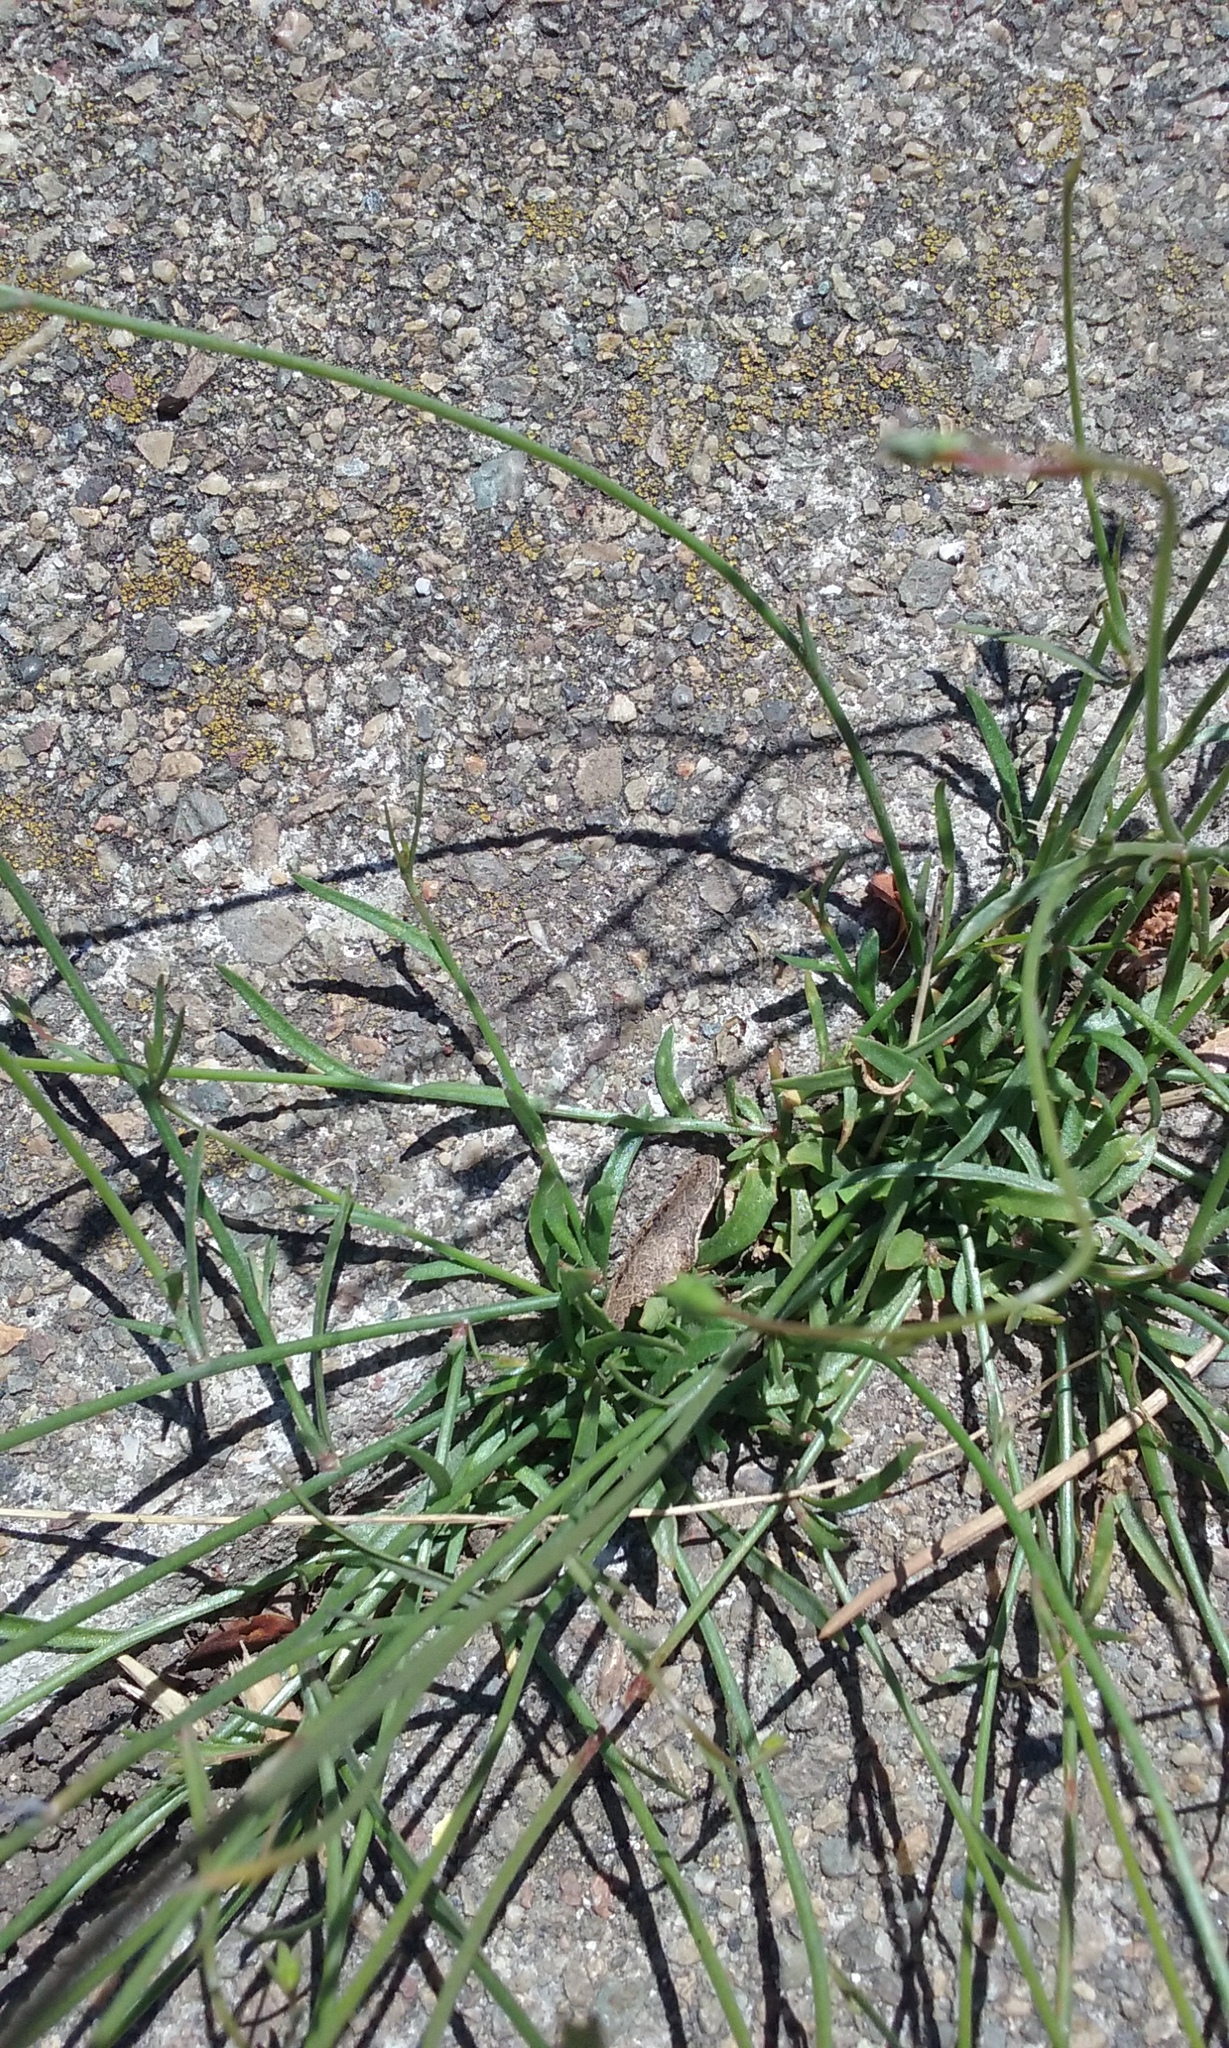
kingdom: Plantae
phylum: Tracheophyta
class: Magnoliopsida
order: Asterales
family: Campanulaceae
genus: Wahlenbergia
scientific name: Wahlenbergia marginata
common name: Southern rockbell
